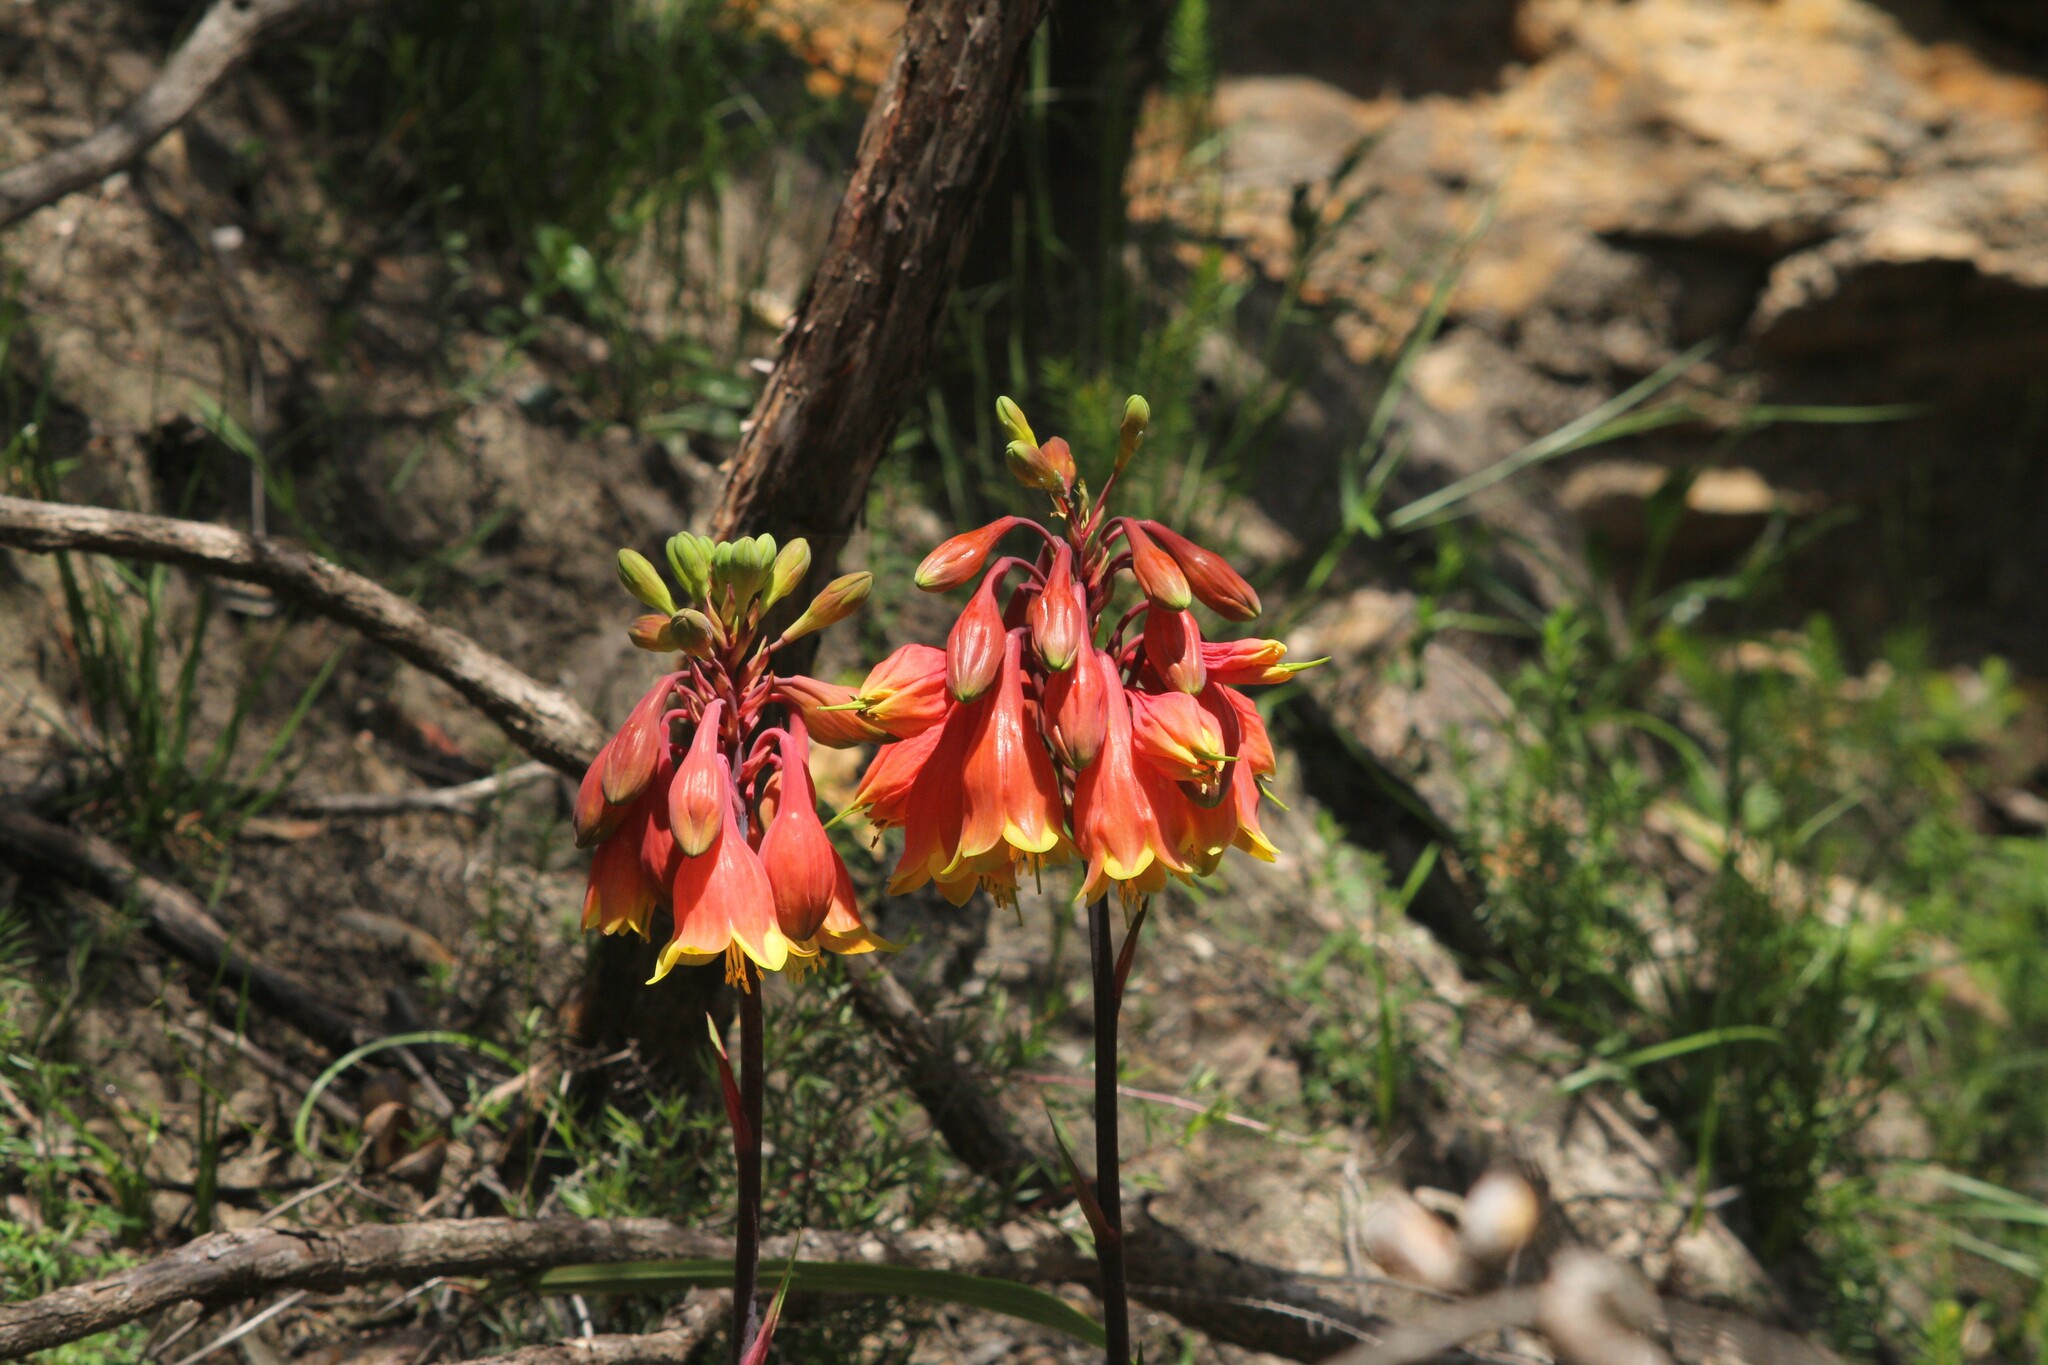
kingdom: Plantae
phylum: Tracheophyta
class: Liliopsida
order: Asparagales
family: Blandfordiaceae
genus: Blandfordia
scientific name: Blandfordia cunninghamii
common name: Christmas-bell
